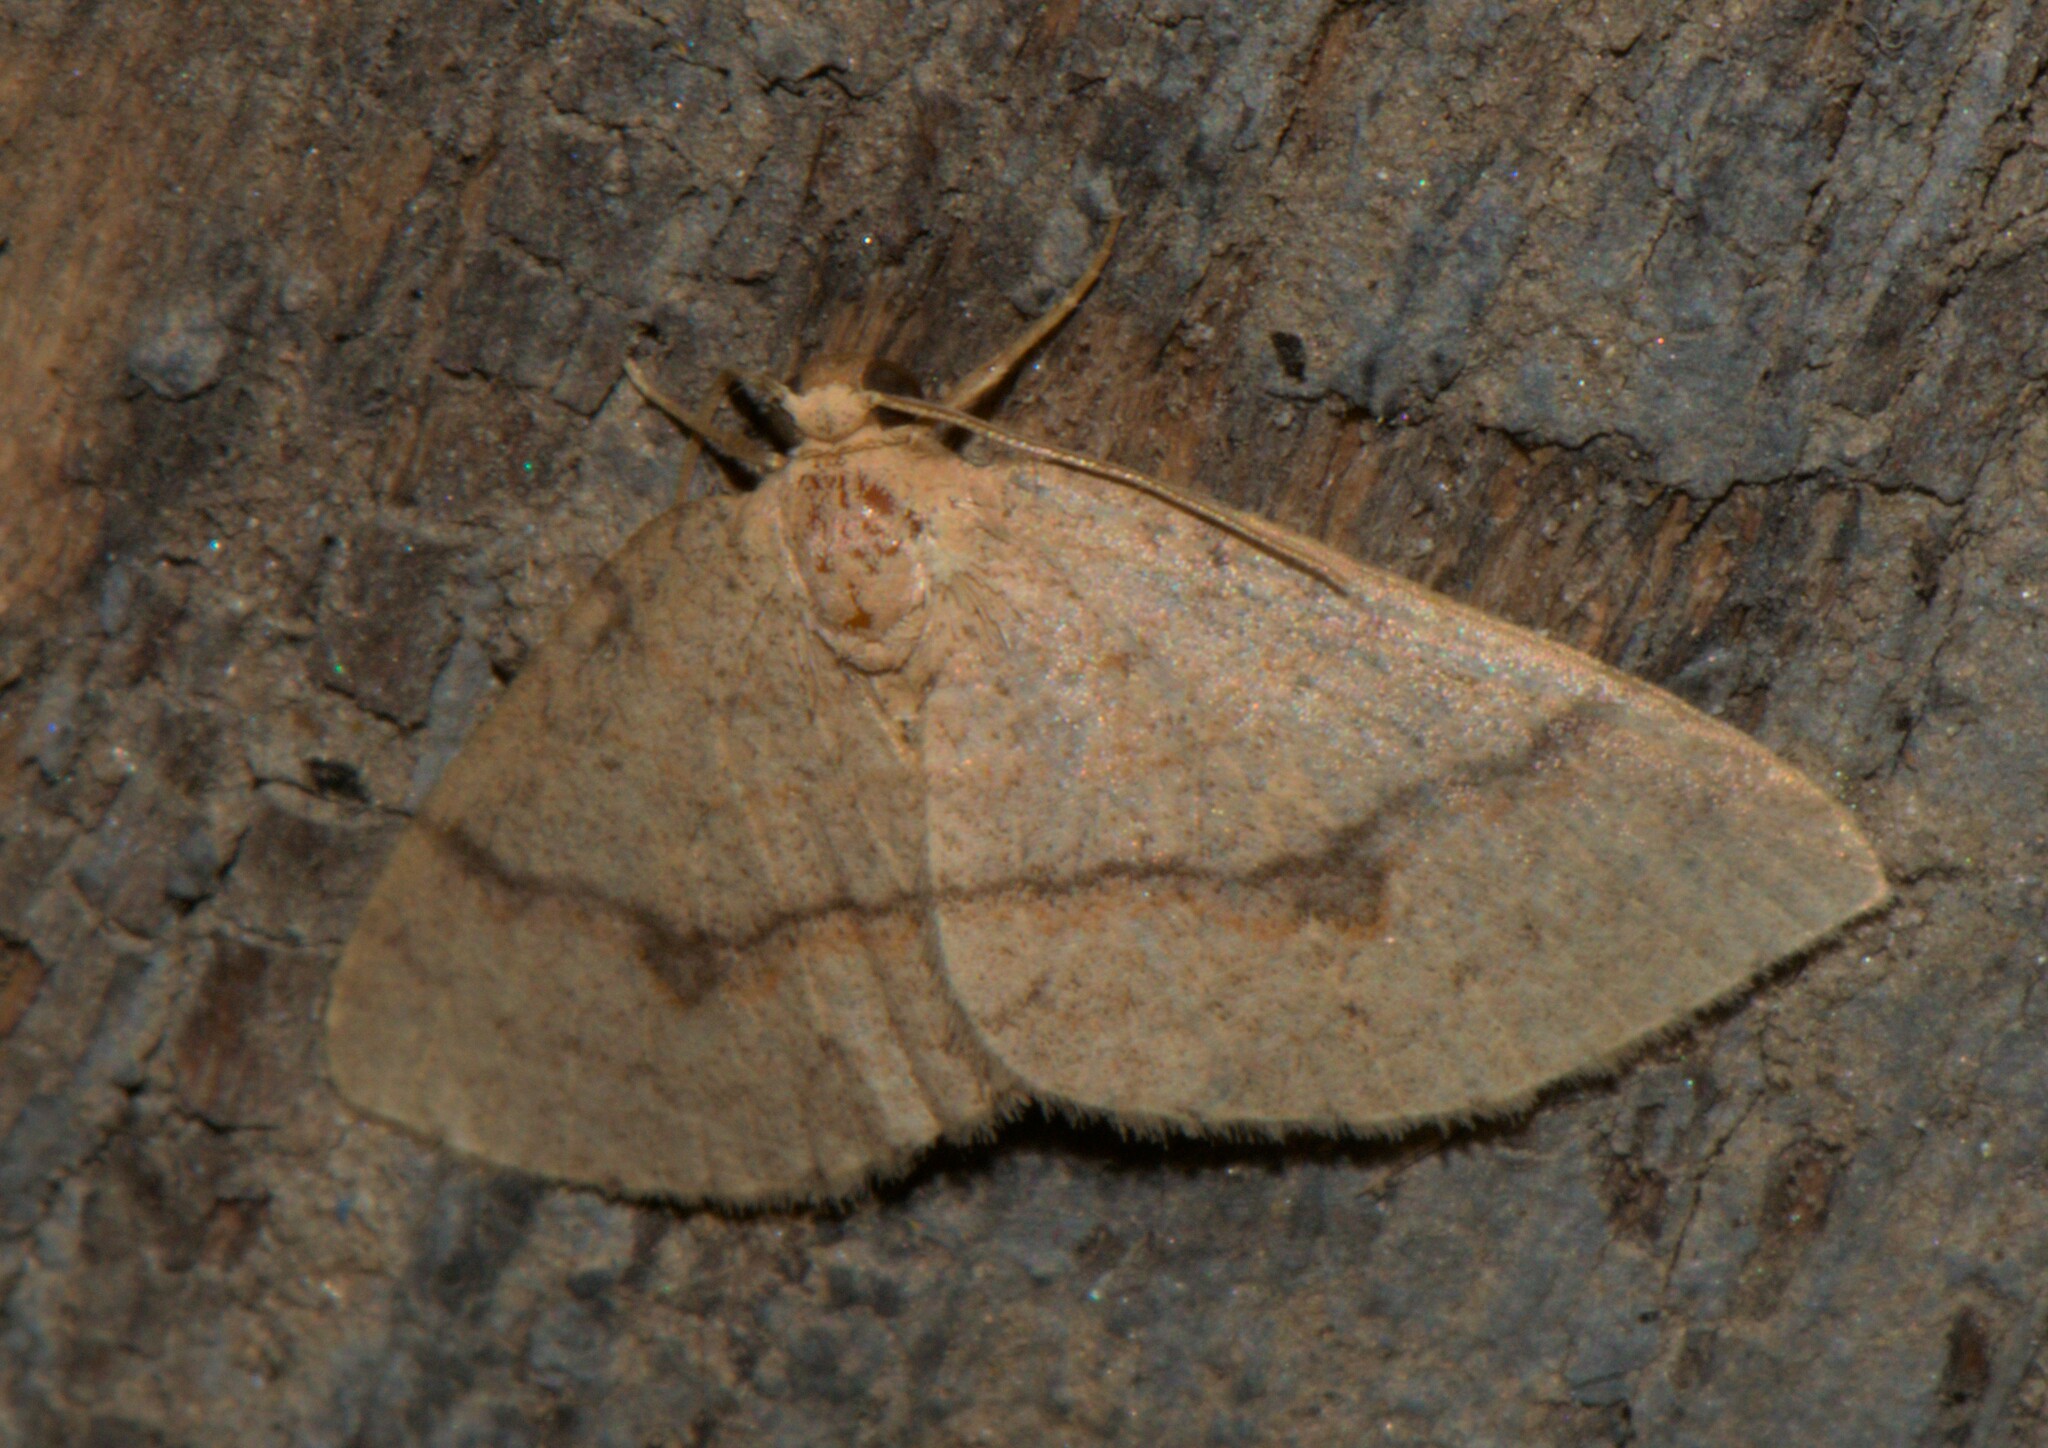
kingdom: Animalia
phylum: Arthropoda
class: Insecta
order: Lepidoptera
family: Geometridae
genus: Anydrelia
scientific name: Anydrelia distorta
